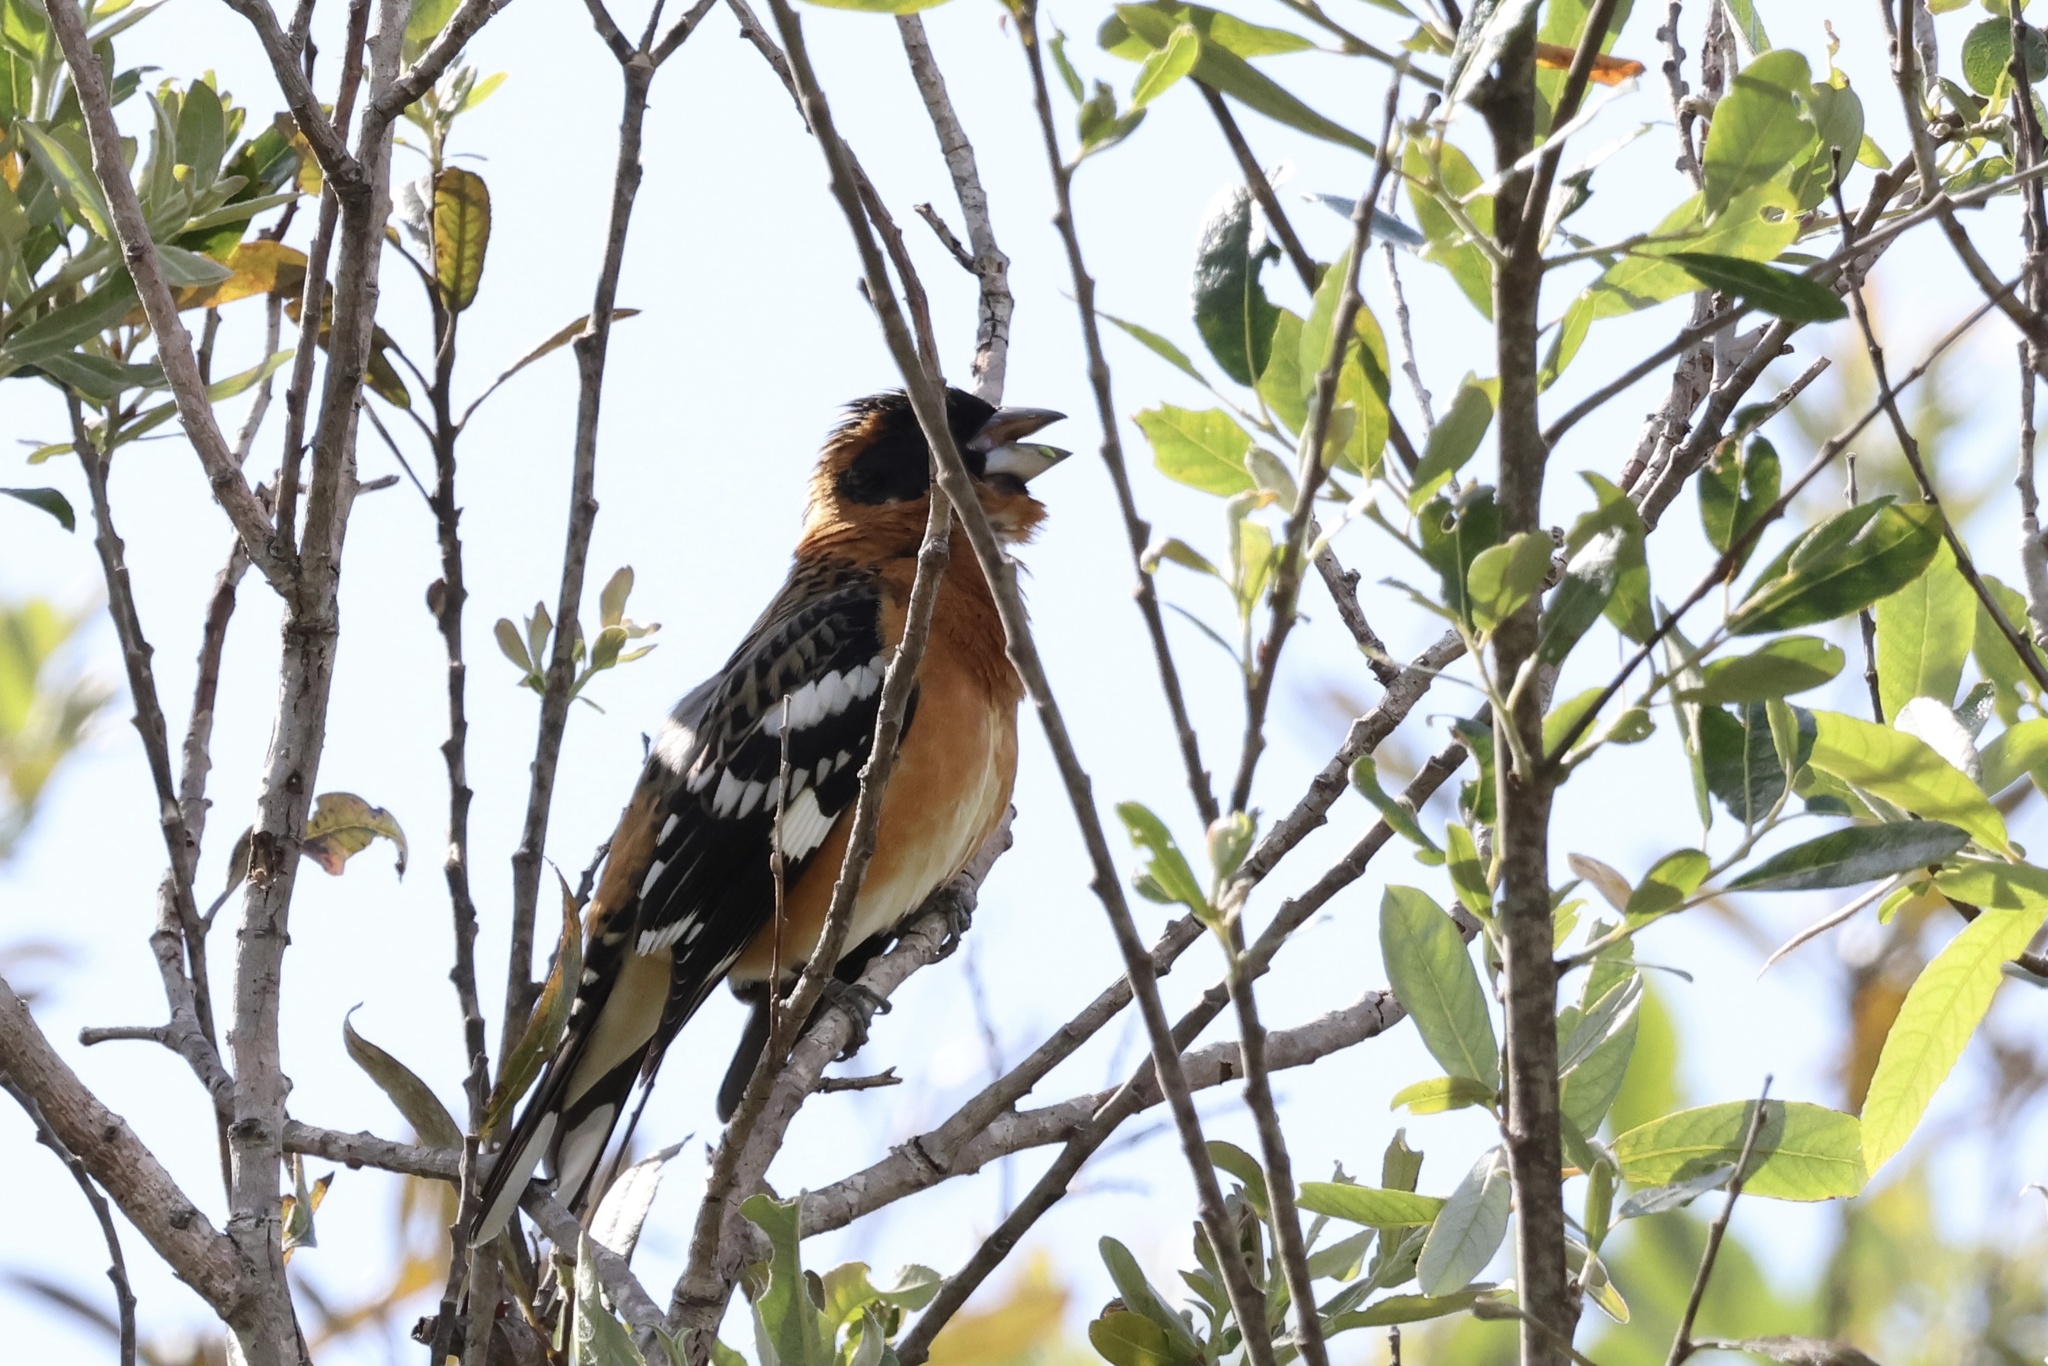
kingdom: Animalia
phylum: Chordata
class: Aves
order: Passeriformes
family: Cardinalidae
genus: Pheucticus
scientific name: Pheucticus melanocephalus
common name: Black-headed grosbeak
